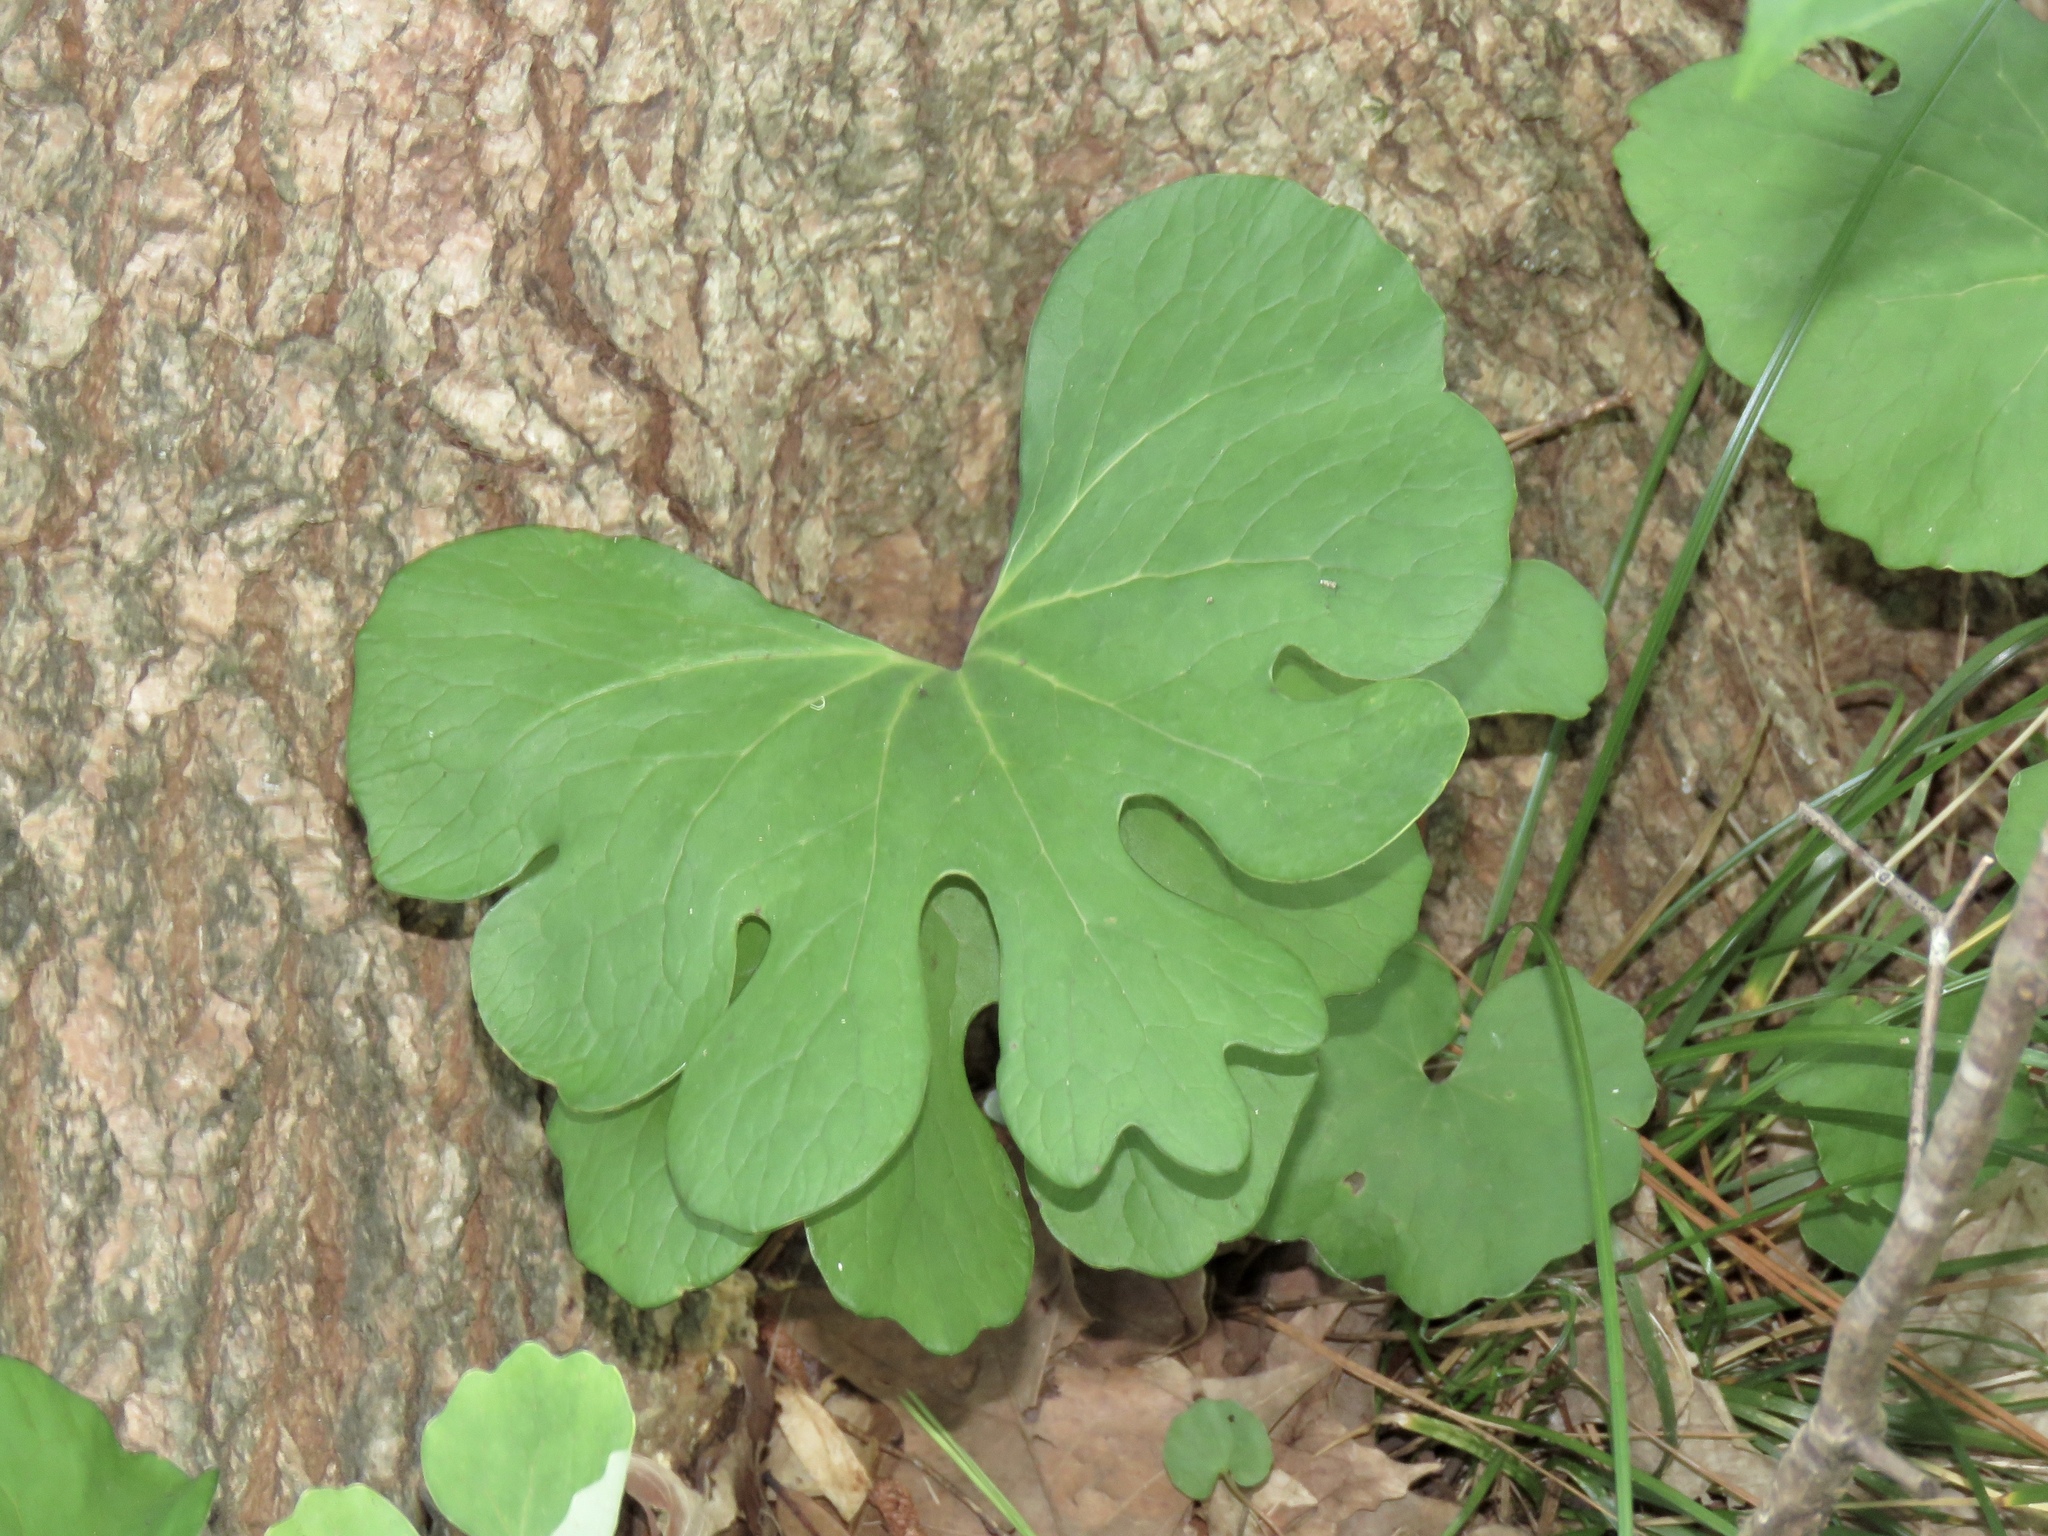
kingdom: Plantae
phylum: Tracheophyta
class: Magnoliopsida
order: Ranunculales
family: Papaveraceae
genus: Sanguinaria
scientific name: Sanguinaria canadensis
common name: Bloodroot
